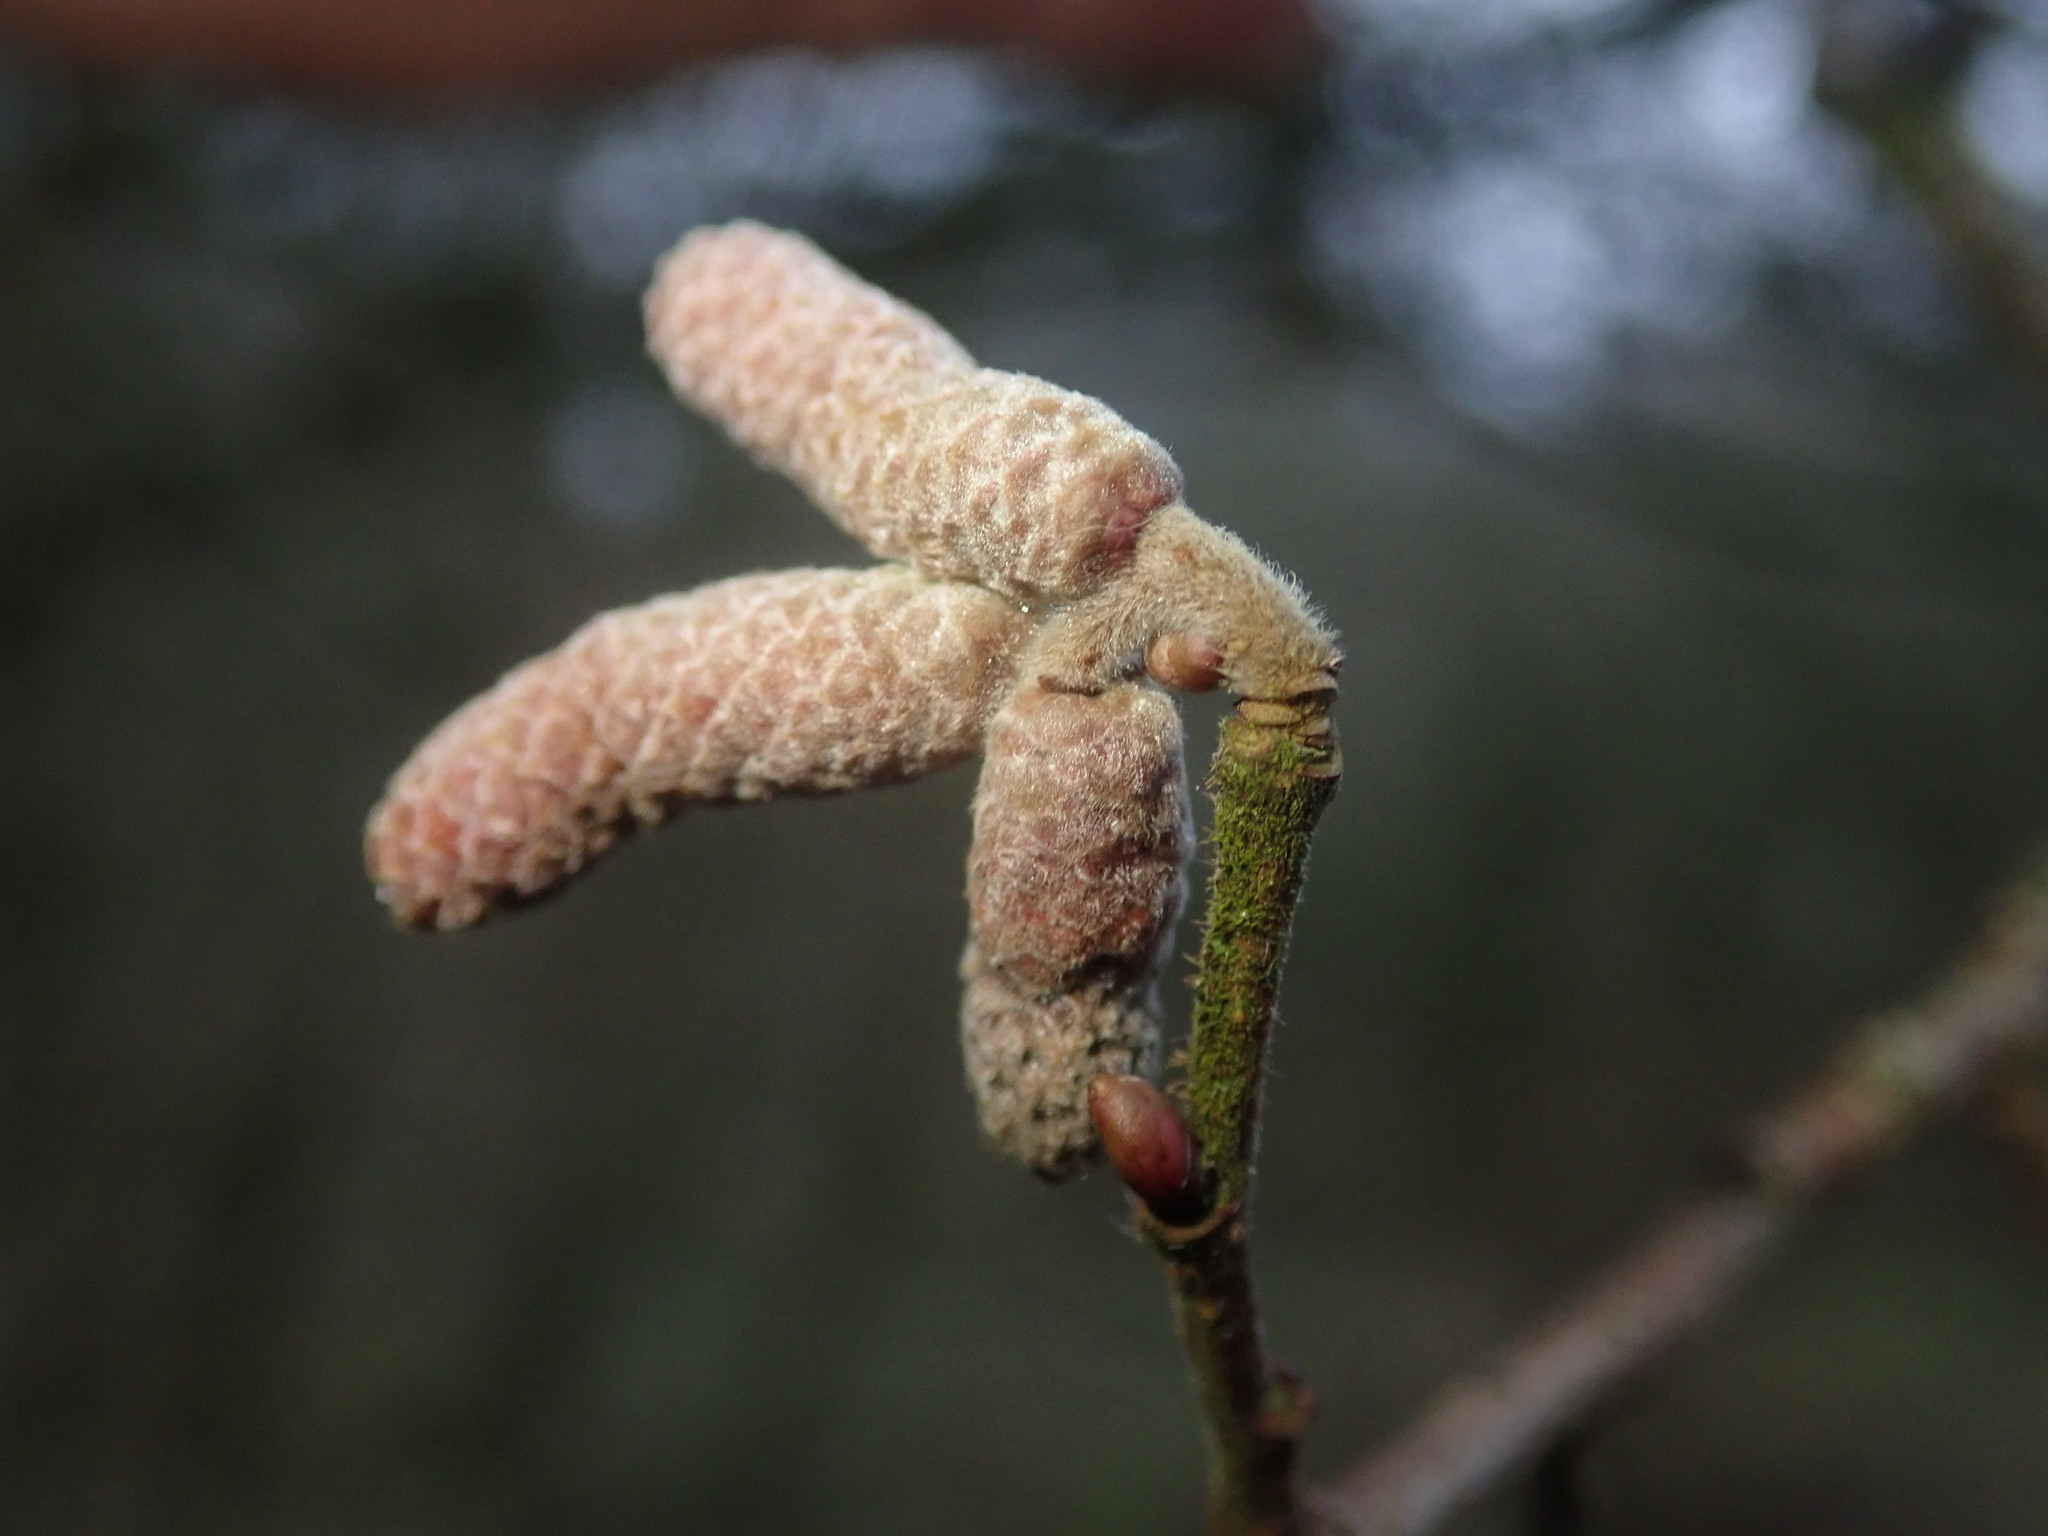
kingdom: Plantae
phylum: Tracheophyta
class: Magnoliopsida
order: Fagales
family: Betulaceae
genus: Corylus
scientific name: Corylus avellana
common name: European hazel
